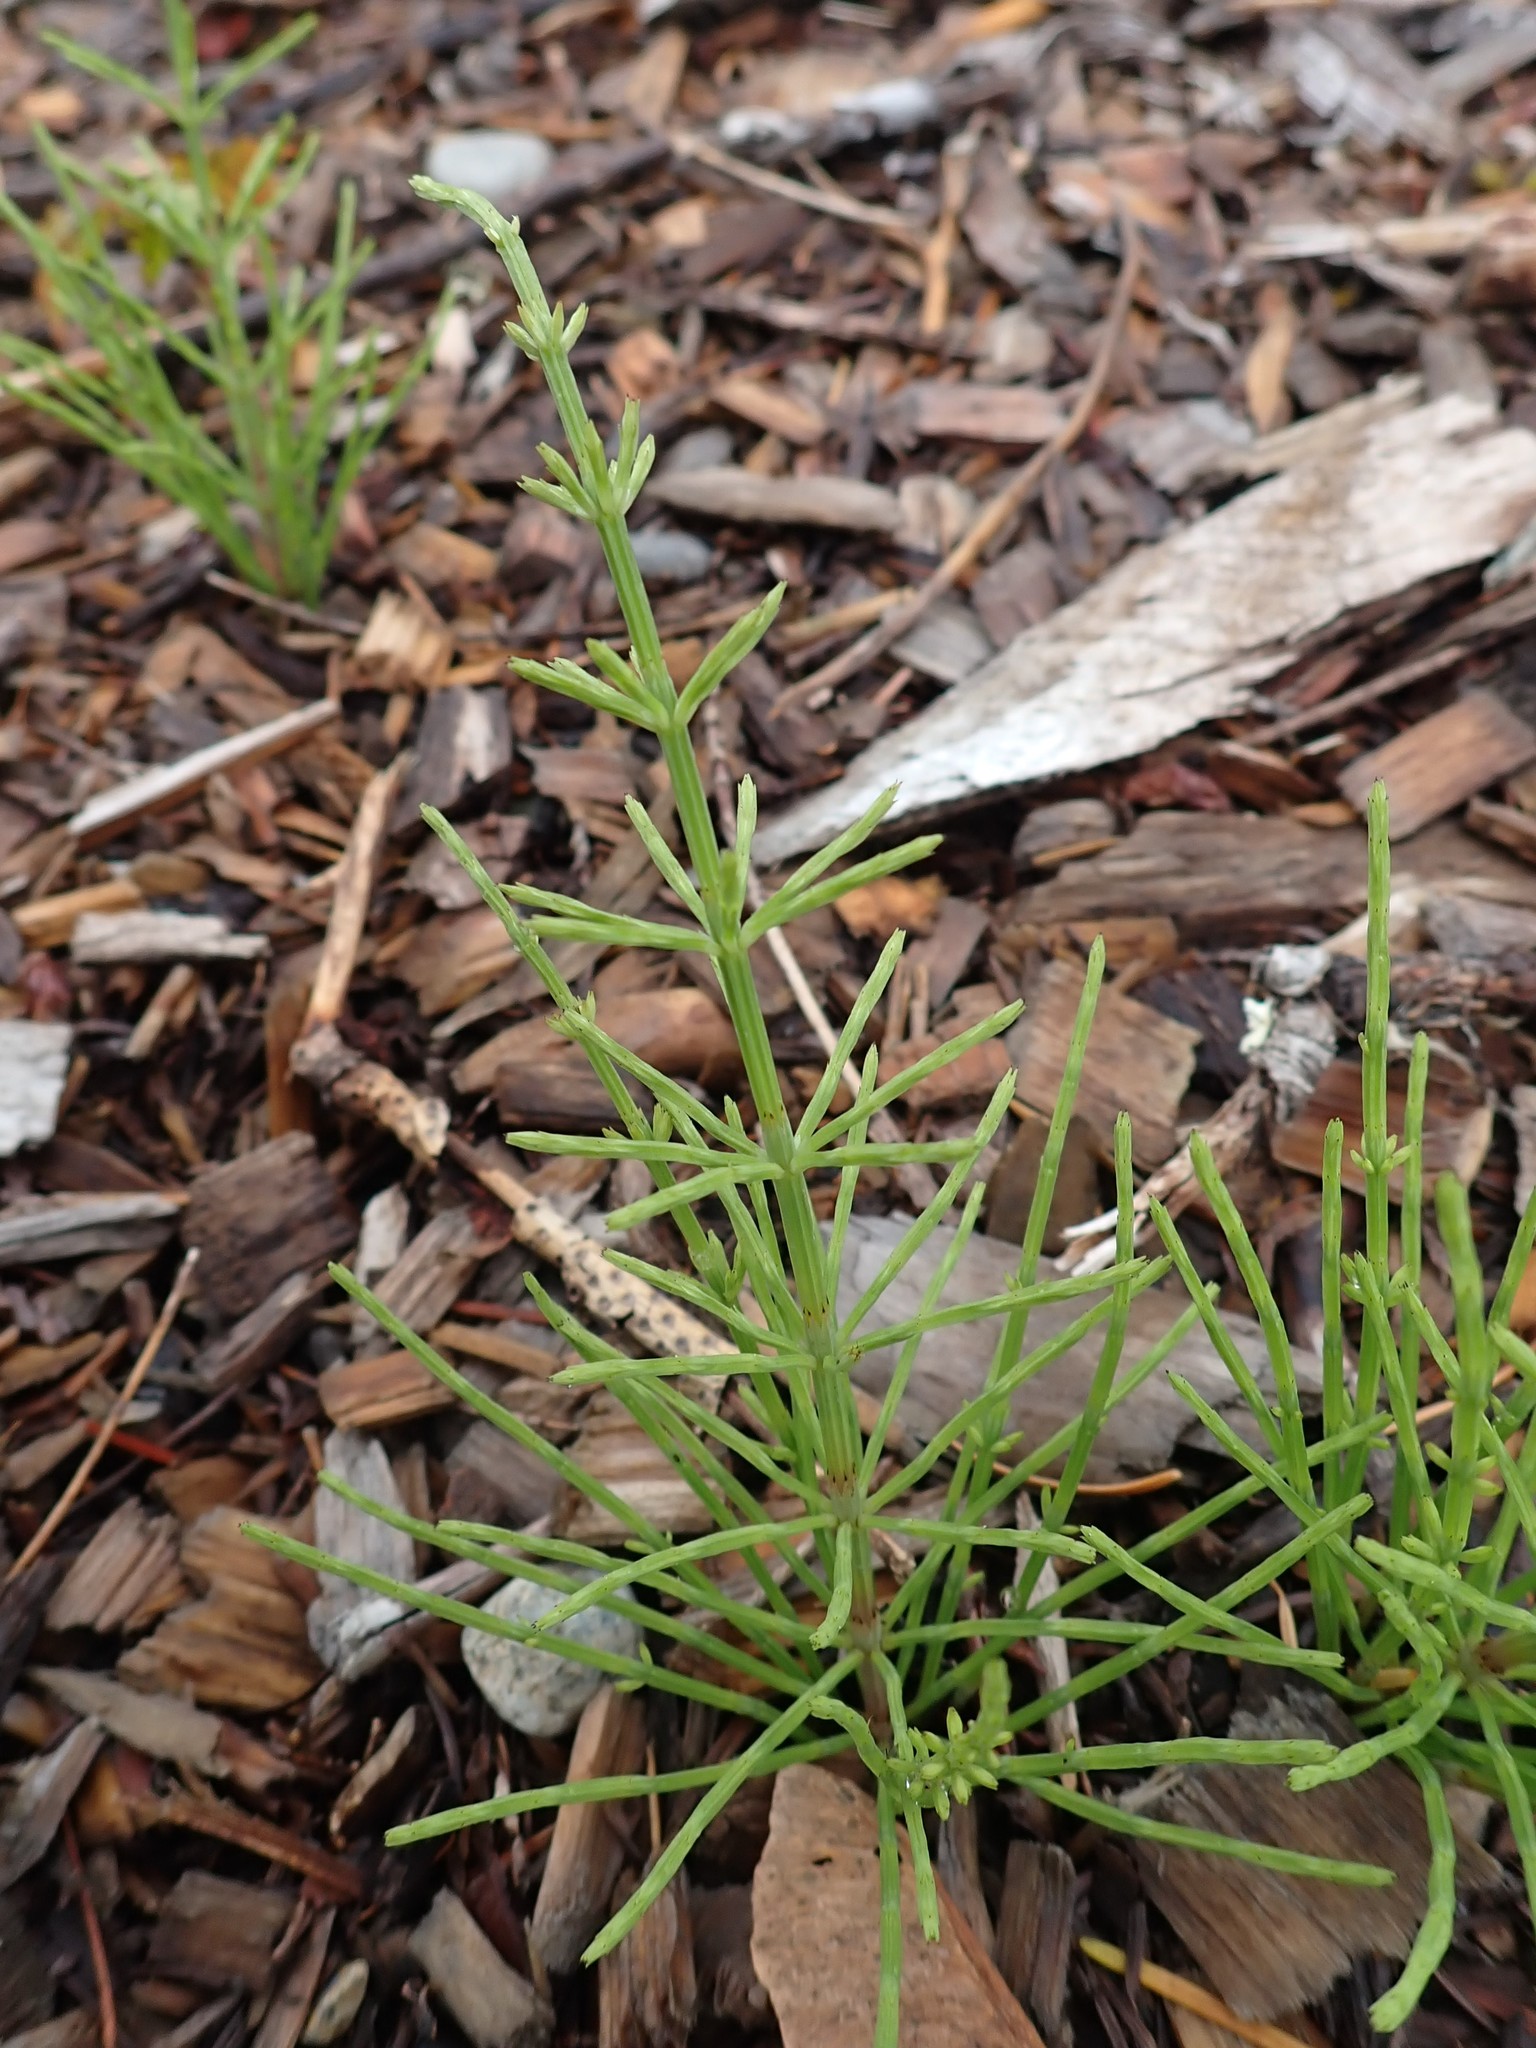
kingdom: Plantae
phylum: Tracheophyta
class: Polypodiopsida
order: Equisetales
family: Equisetaceae
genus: Equisetum
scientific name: Equisetum arvense
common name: Field horsetail
